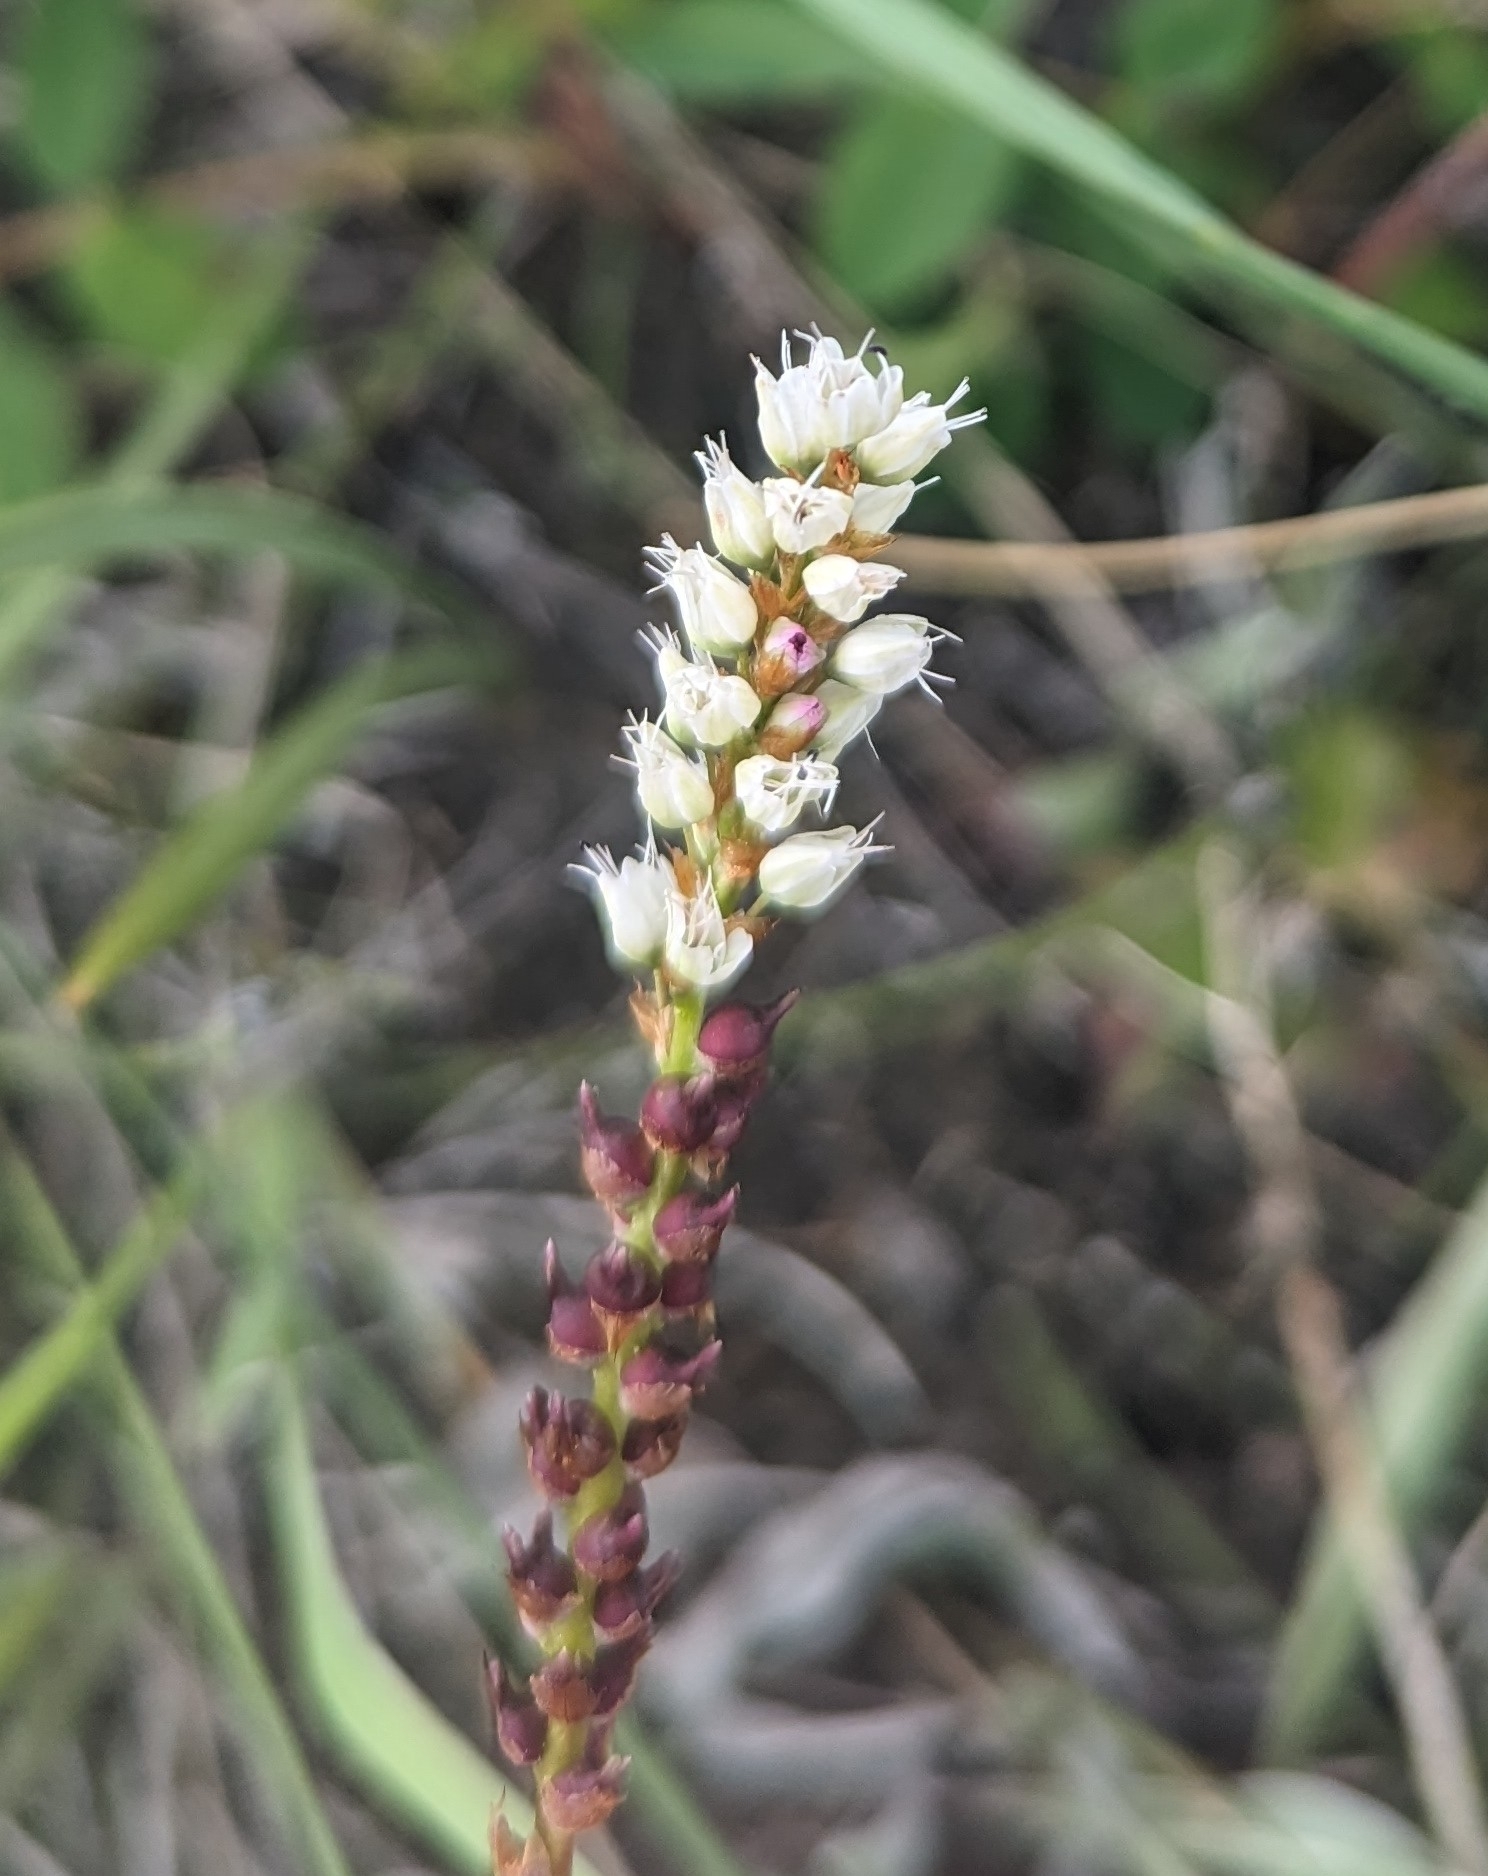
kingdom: Plantae
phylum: Tracheophyta
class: Magnoliopsida
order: Caryophyllales
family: Polygonaceae
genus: Bistorta
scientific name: Bistorta vivipara
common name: Alpine bistort
